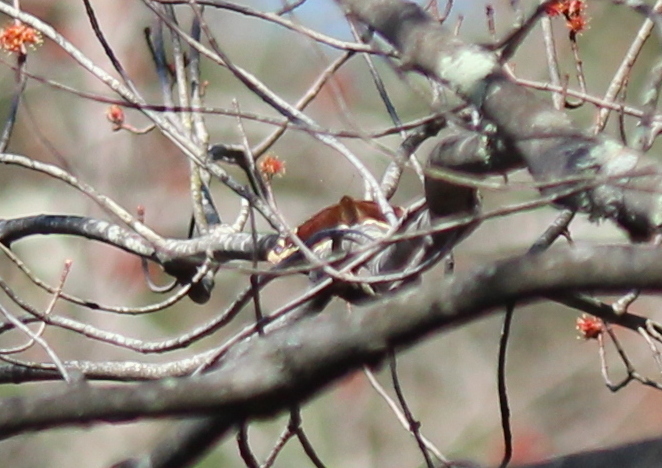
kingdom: Animalia
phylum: Arthropoda
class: Insecta
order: Lepidoptera
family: Nymphalidae
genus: Nymphalis
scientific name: Nymphalis antiopa
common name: Camberwell beauty
